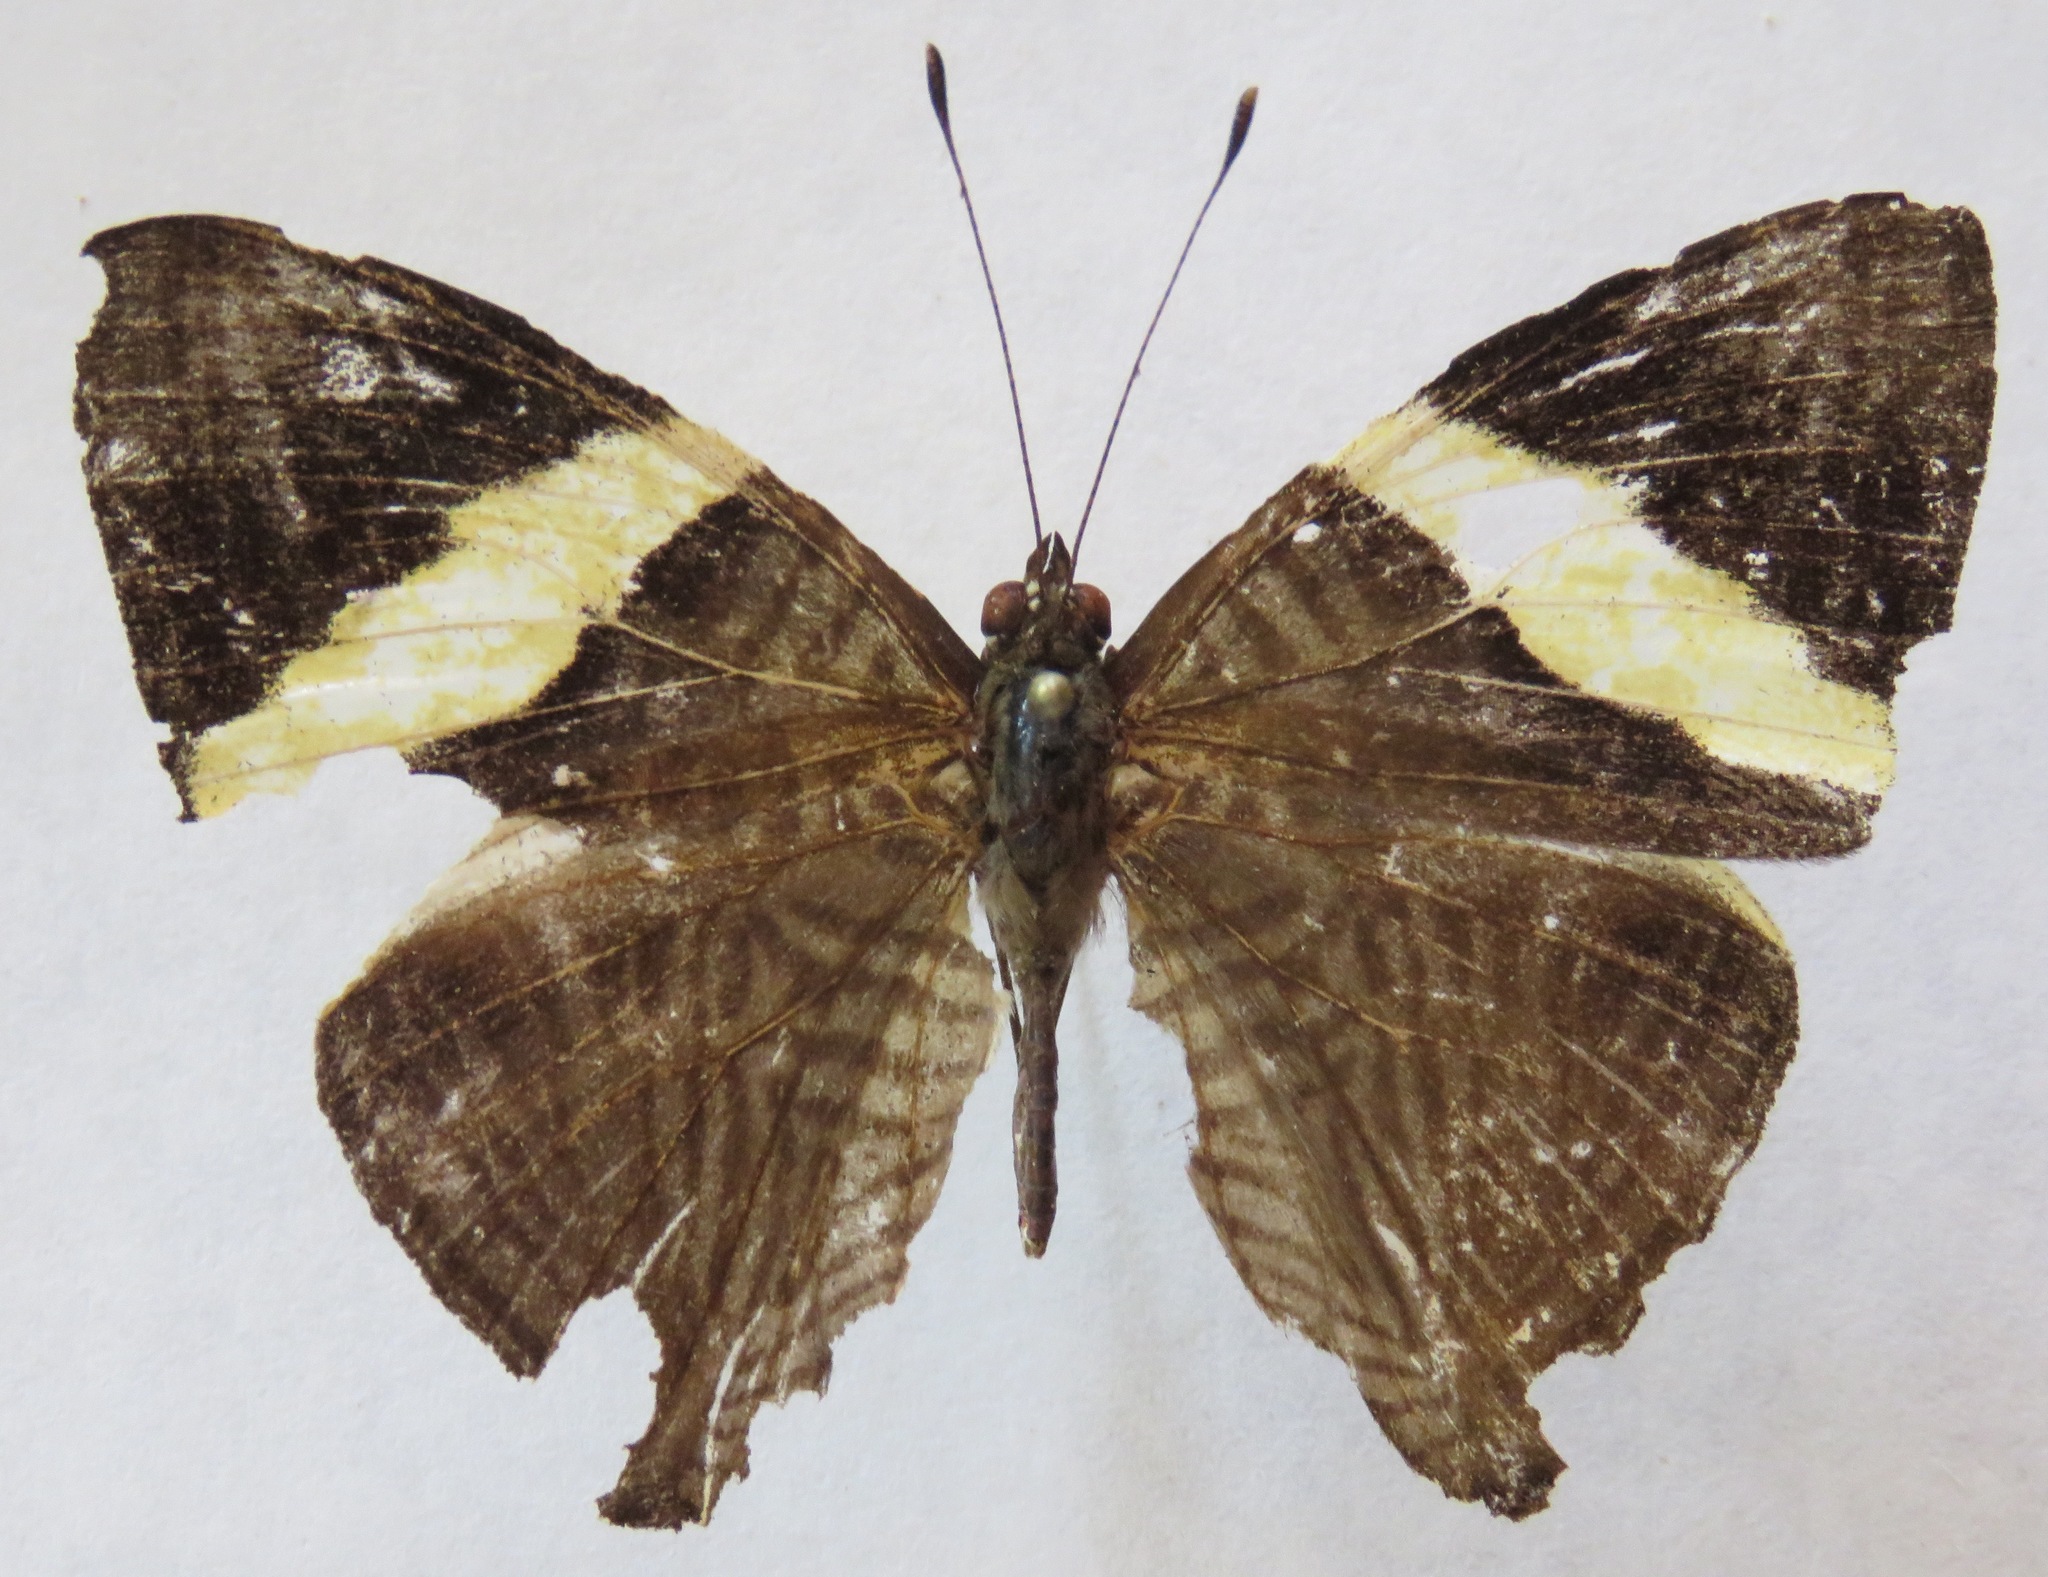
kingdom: Animalia
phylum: Arthropoda
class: Insecta
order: Lepidoptera
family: Nymphalidae
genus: Colobura
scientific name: Colobura dirce
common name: Dirce beauty
